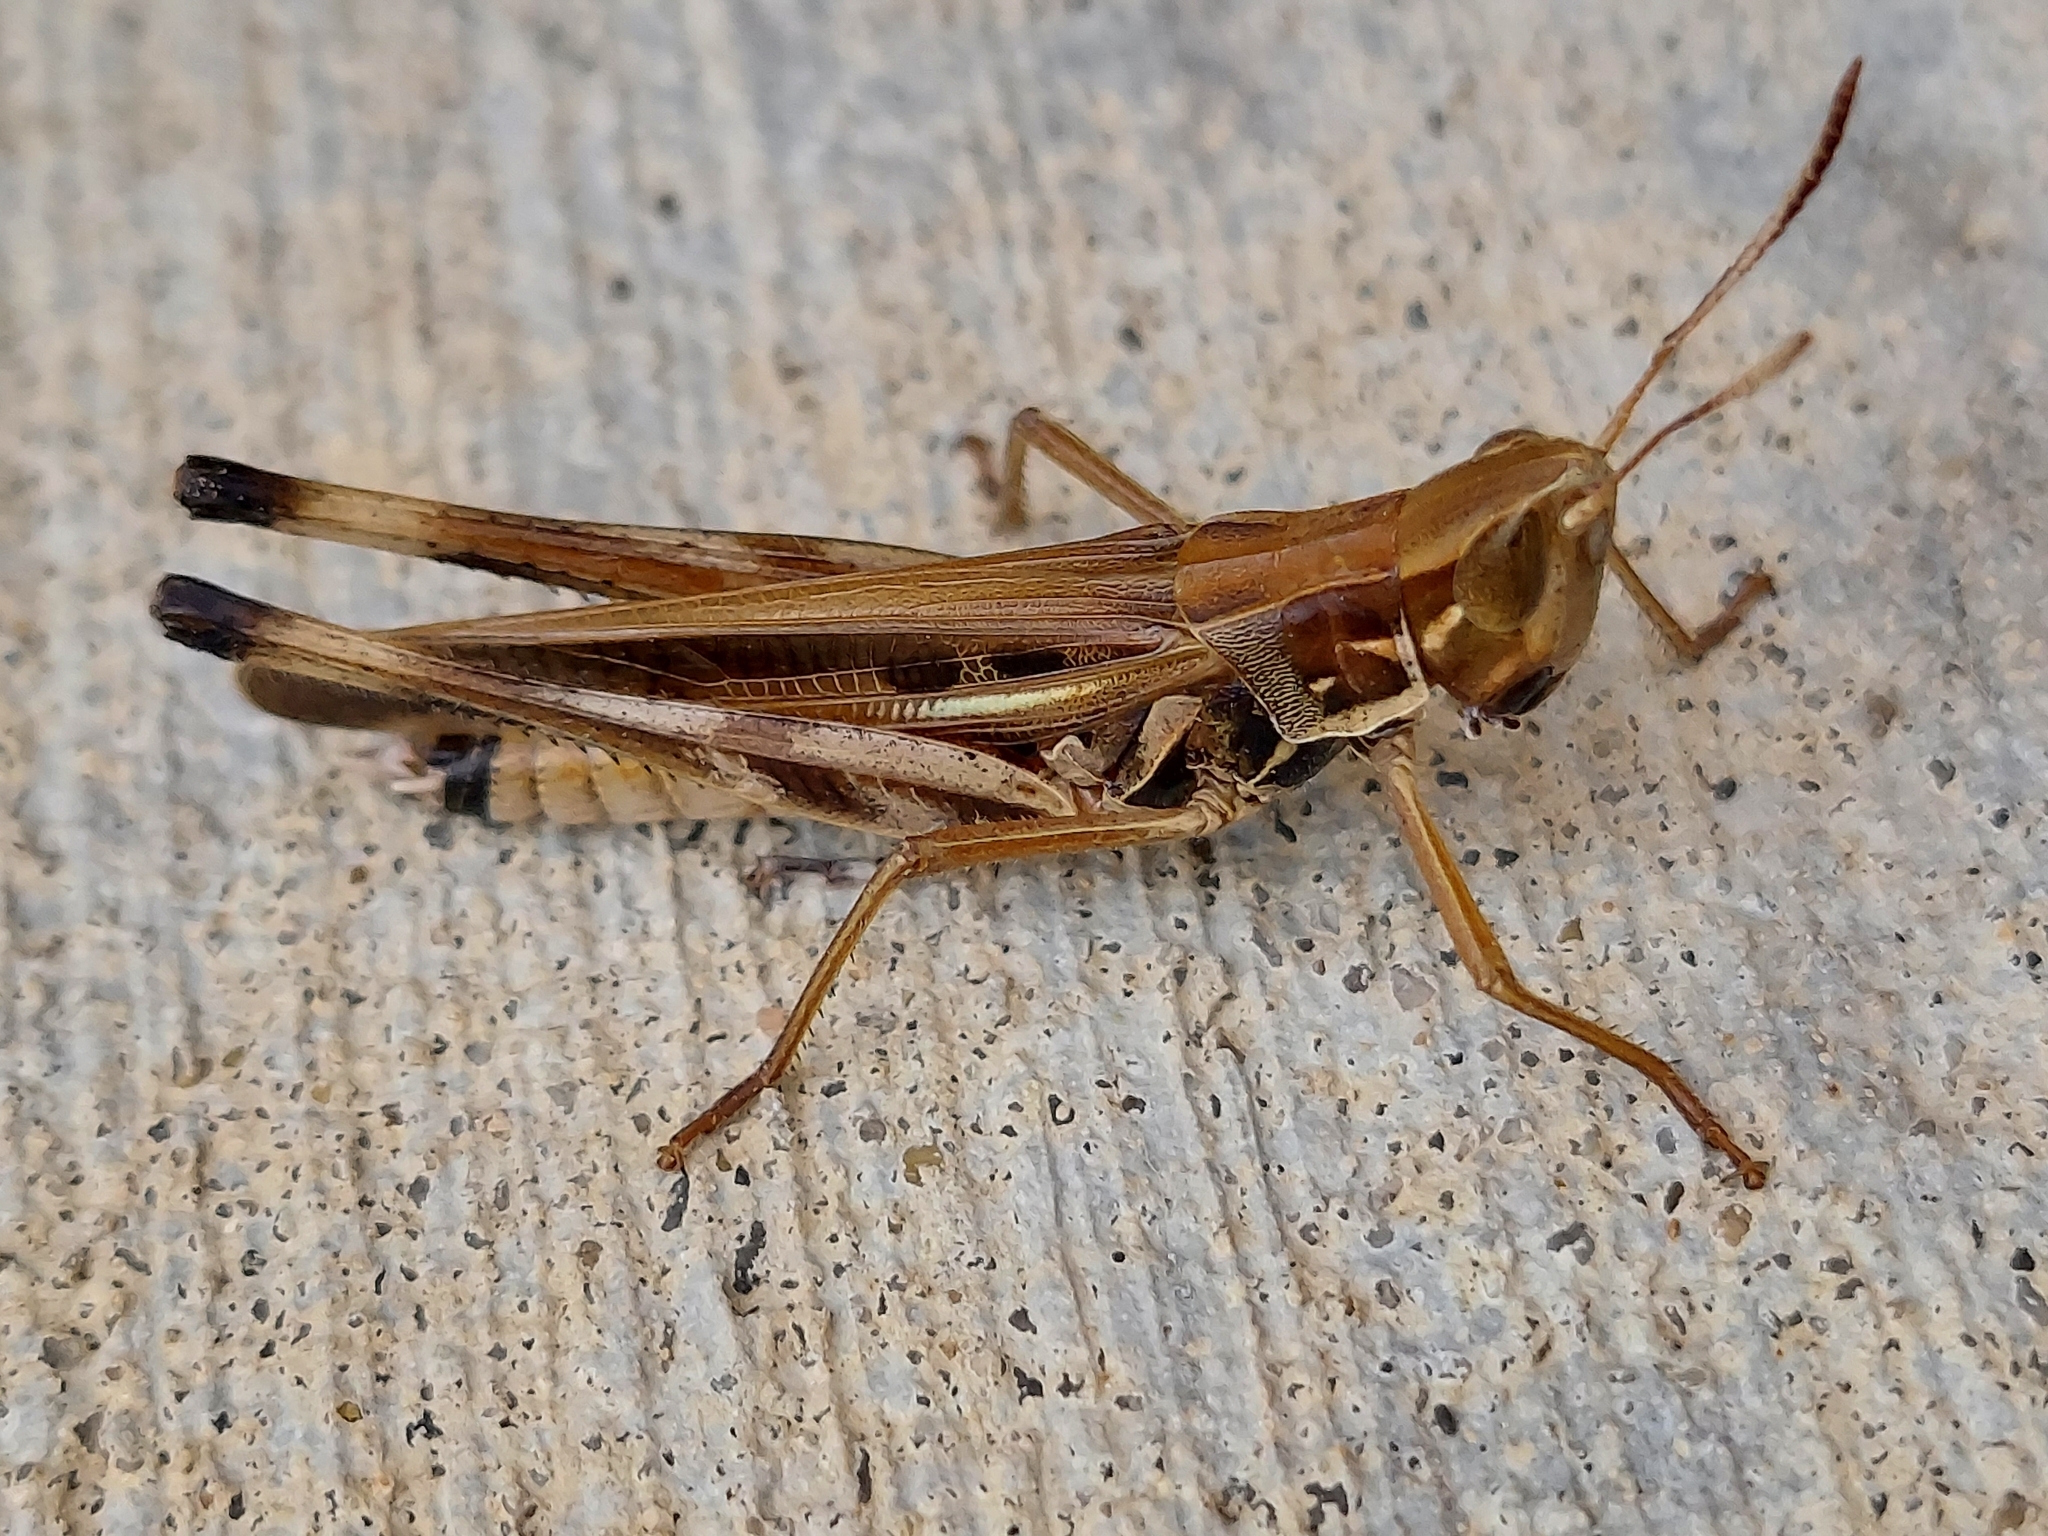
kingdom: Animalia
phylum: Arthropoda
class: Insecta
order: Orthoptera
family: Acrididae
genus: Syrbula
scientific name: Syrbula admirabilis
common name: Handsome grasshopper
